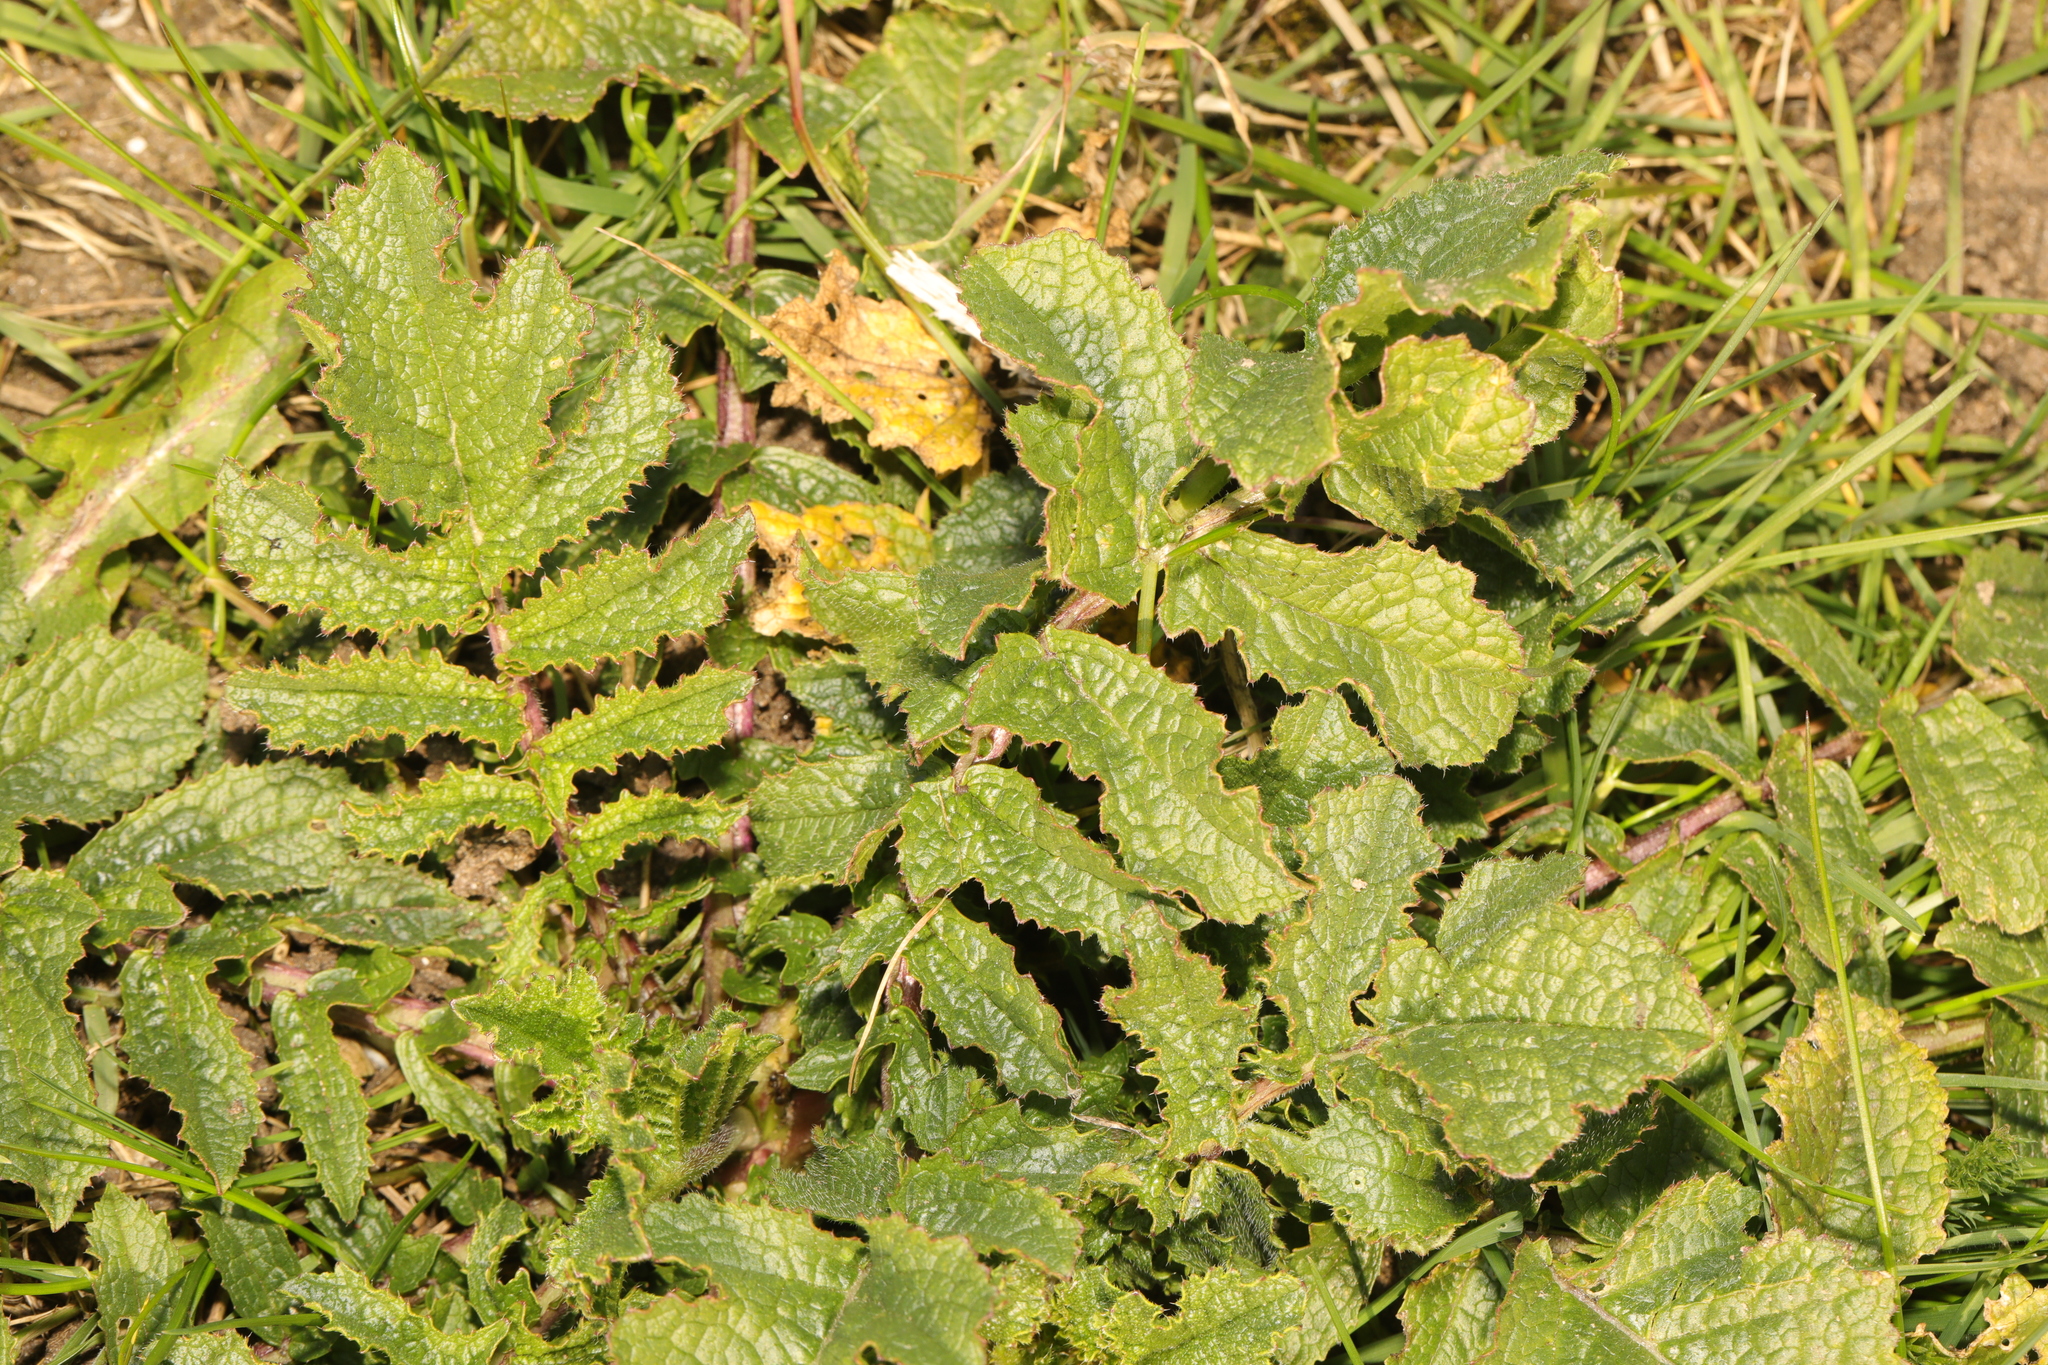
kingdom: Plantae
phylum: Tracheophyta
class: Magnoliopsida
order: Brassicales
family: Brassicaceae
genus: Raphanus
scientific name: Raphanus raphanistrum
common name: Wild radish
